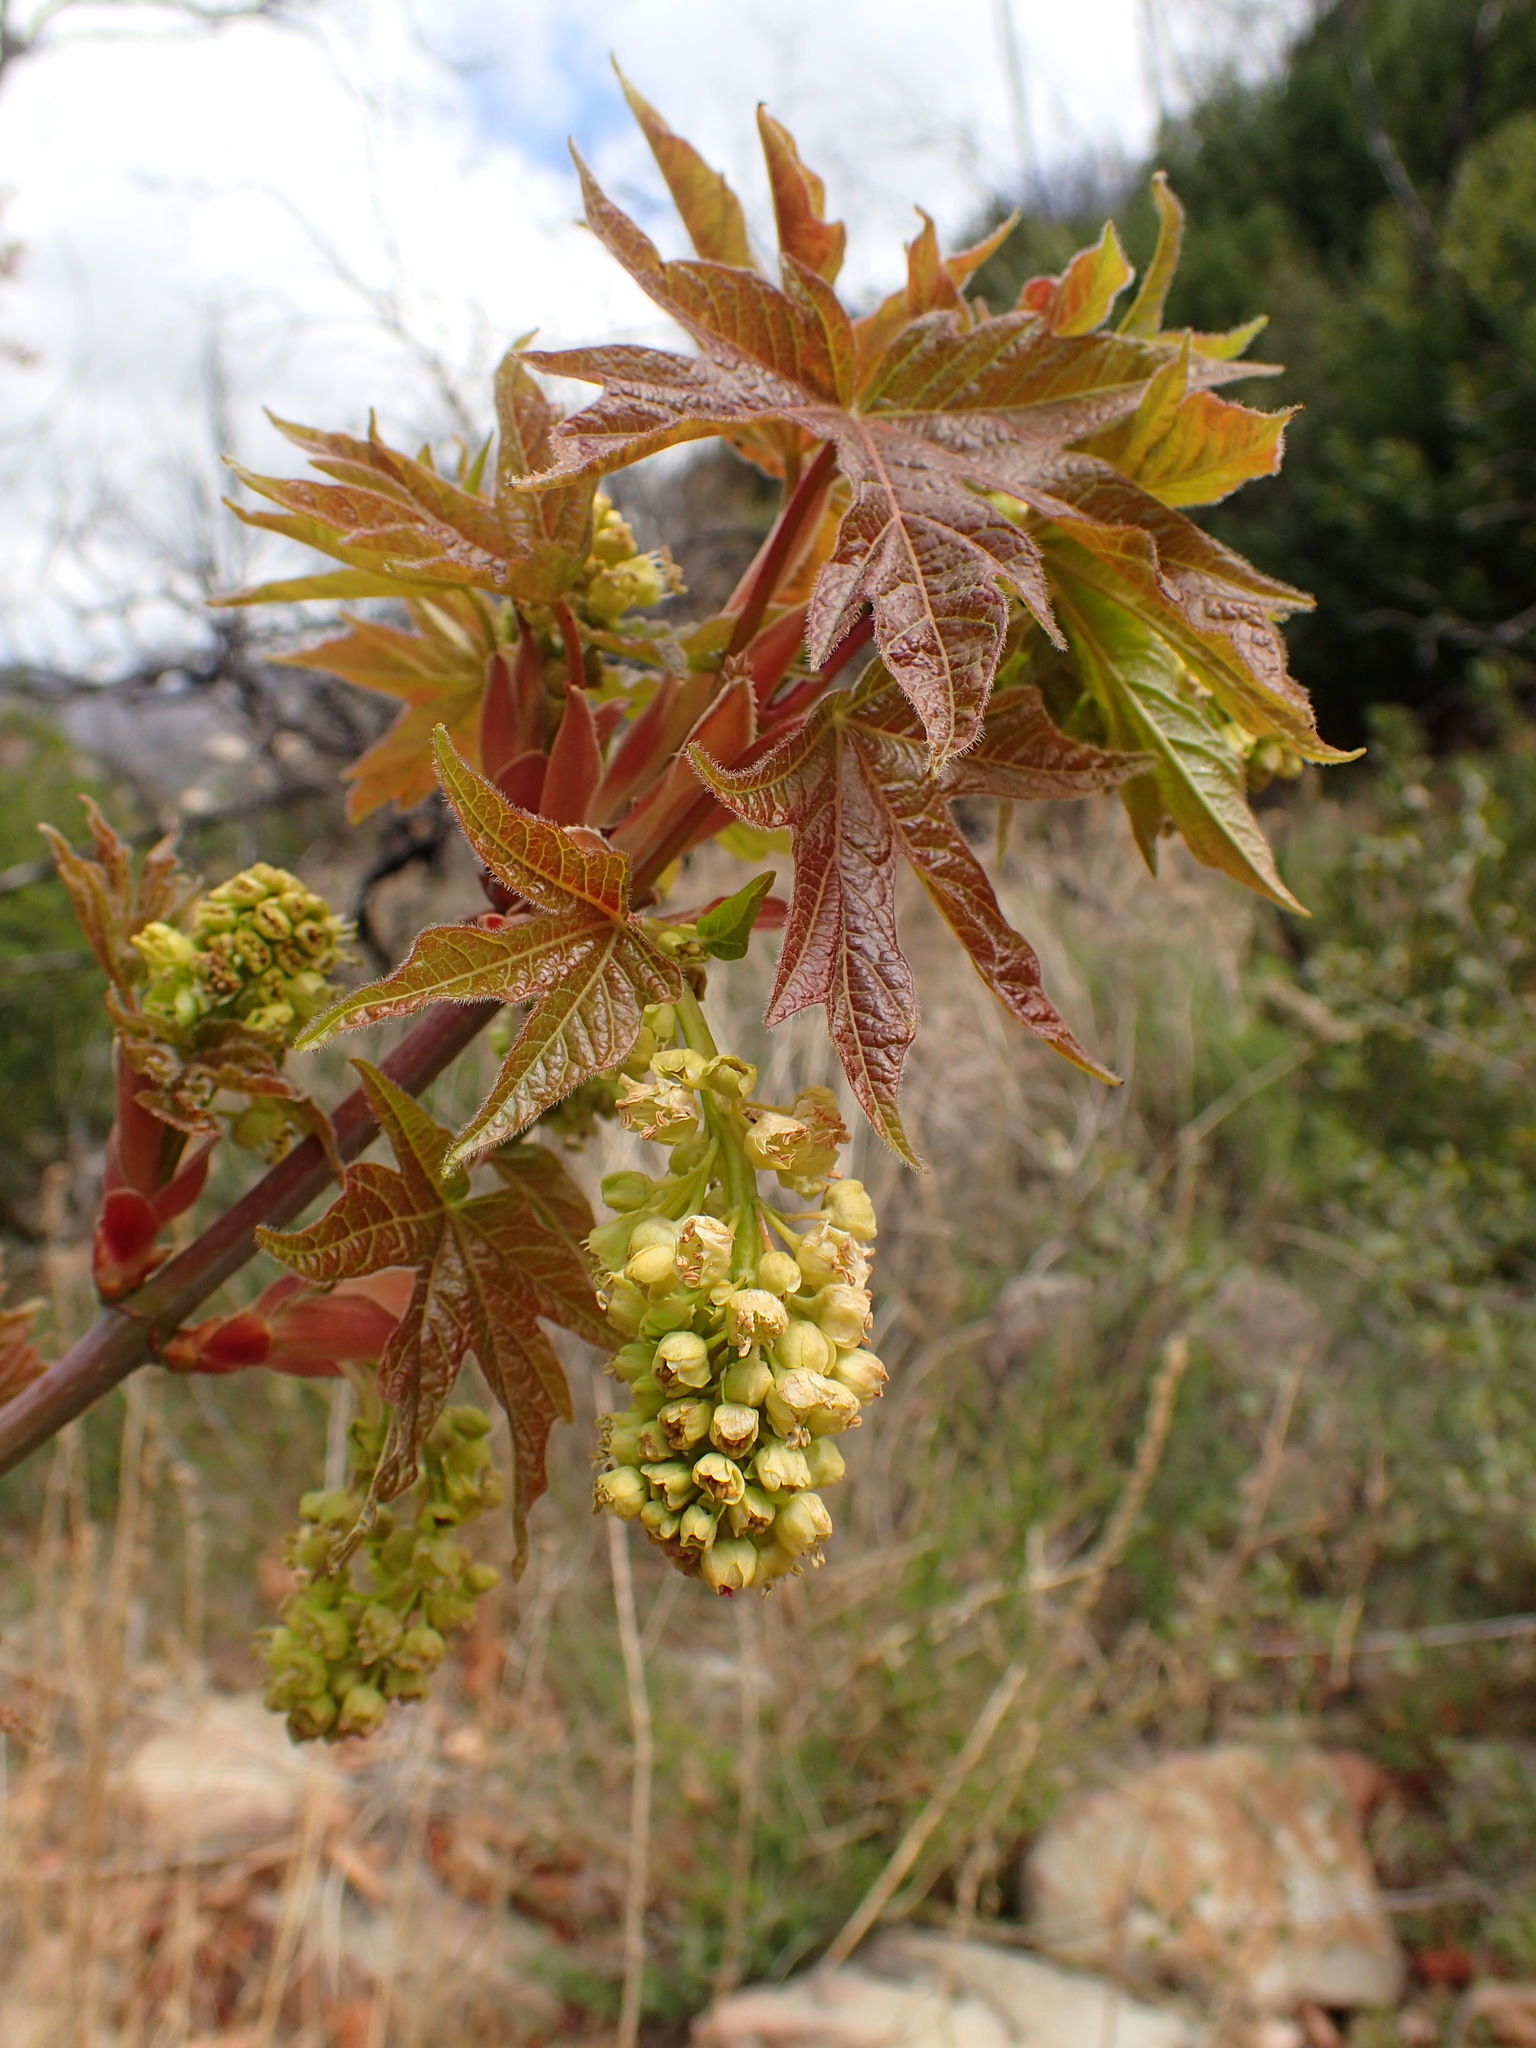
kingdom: Plantae
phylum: Tracheophyta
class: Magnoliopsida
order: Sapindales
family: Sapindaceae
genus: Acer
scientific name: Acer macrophyllum
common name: Oregon maple
